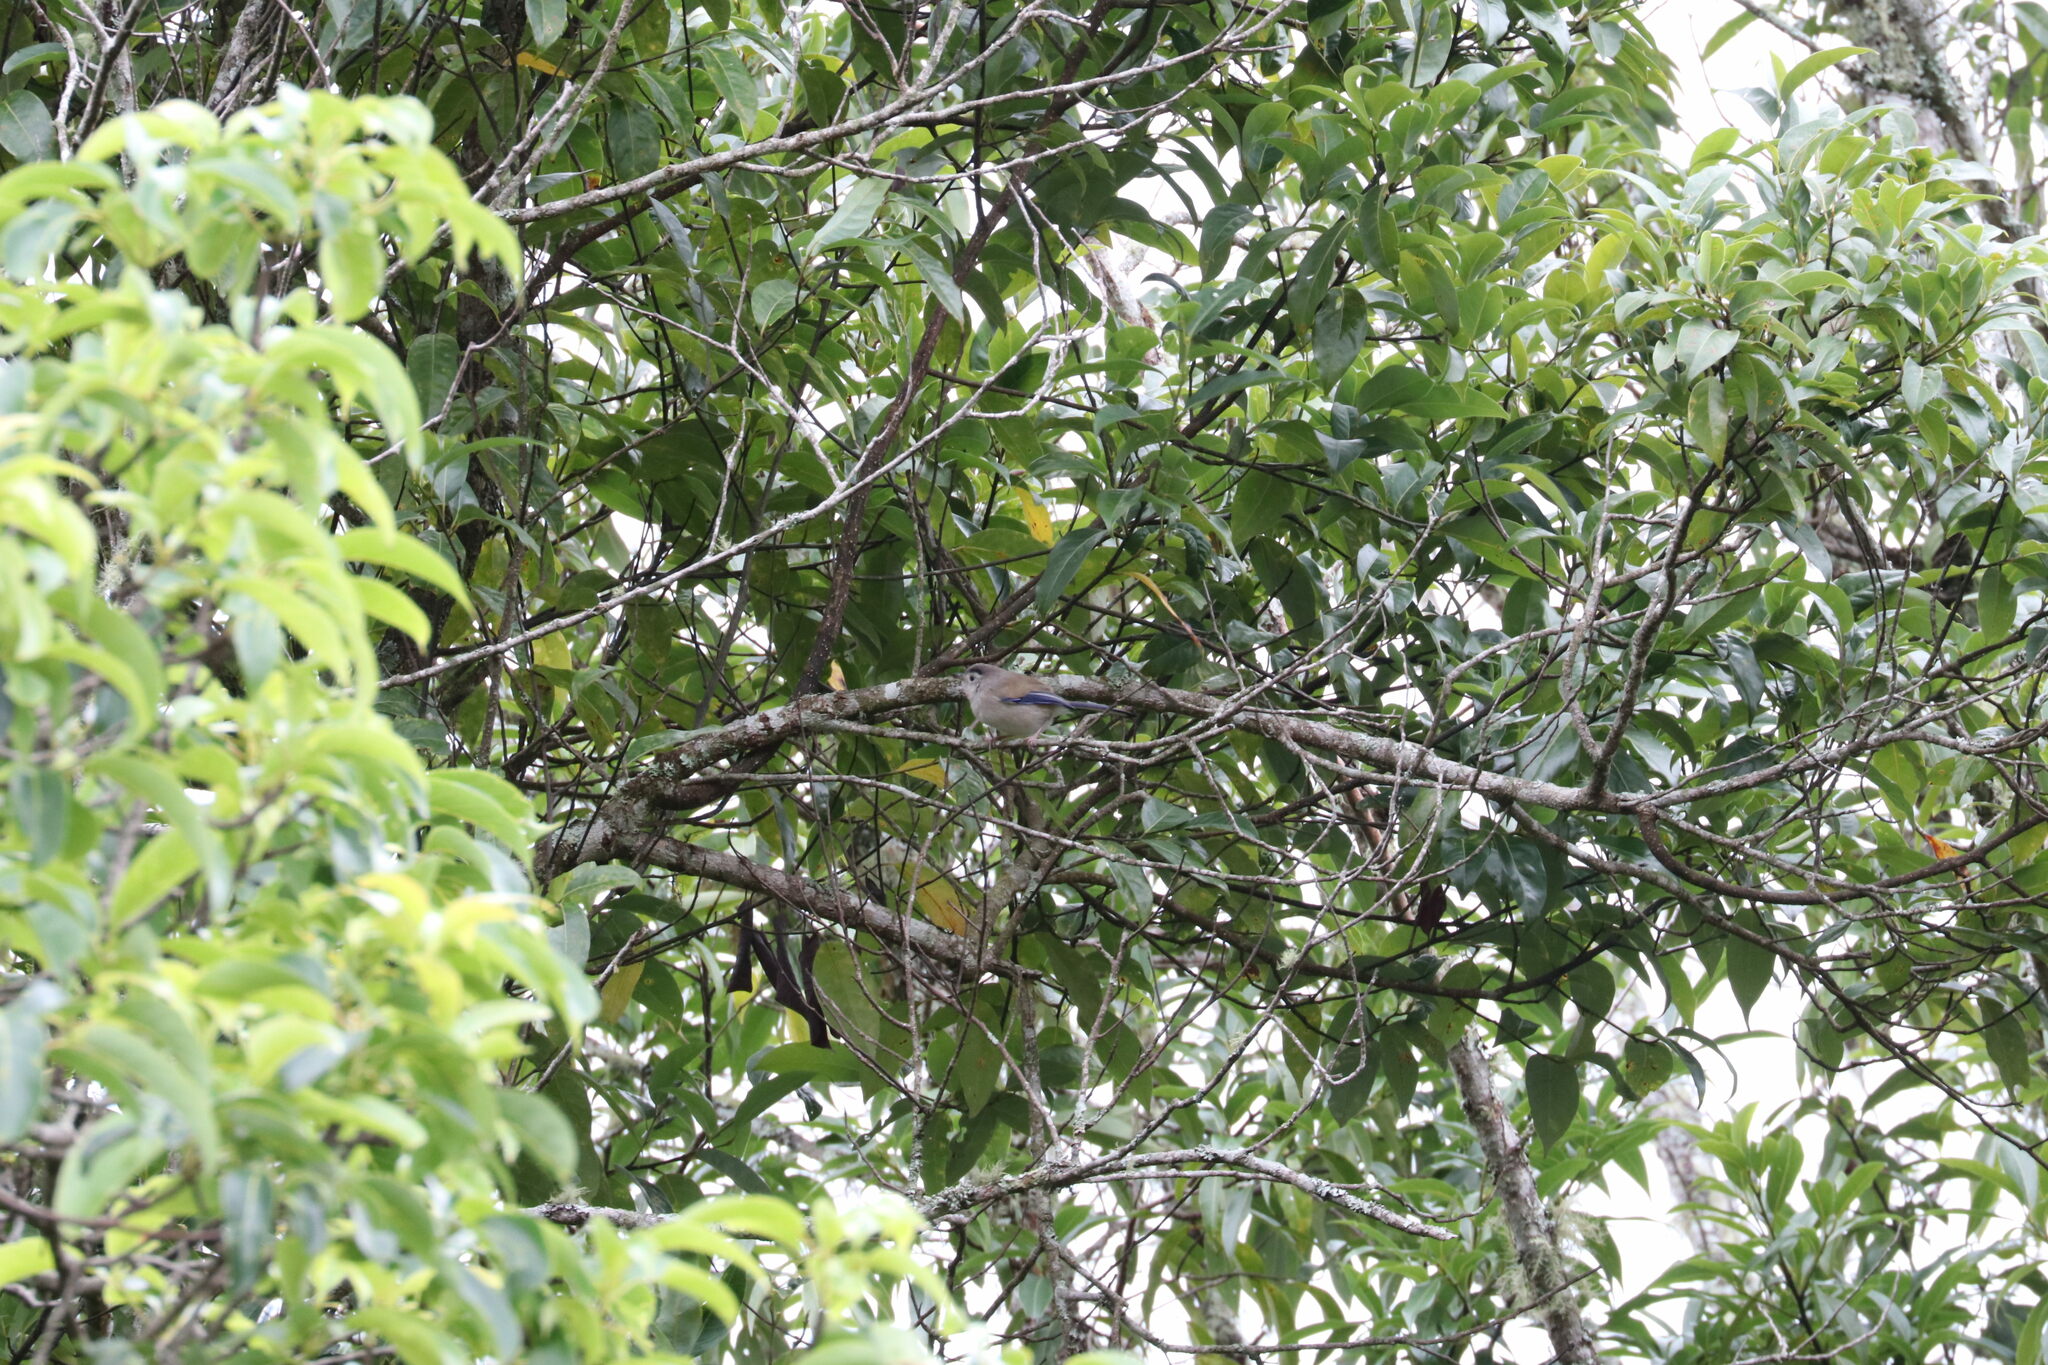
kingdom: Animalia
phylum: Chordata
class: Aves
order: Passeriformes
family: Leiothrichidae
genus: Minla
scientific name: Minla cyanouroptera
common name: Blue-winged minla
